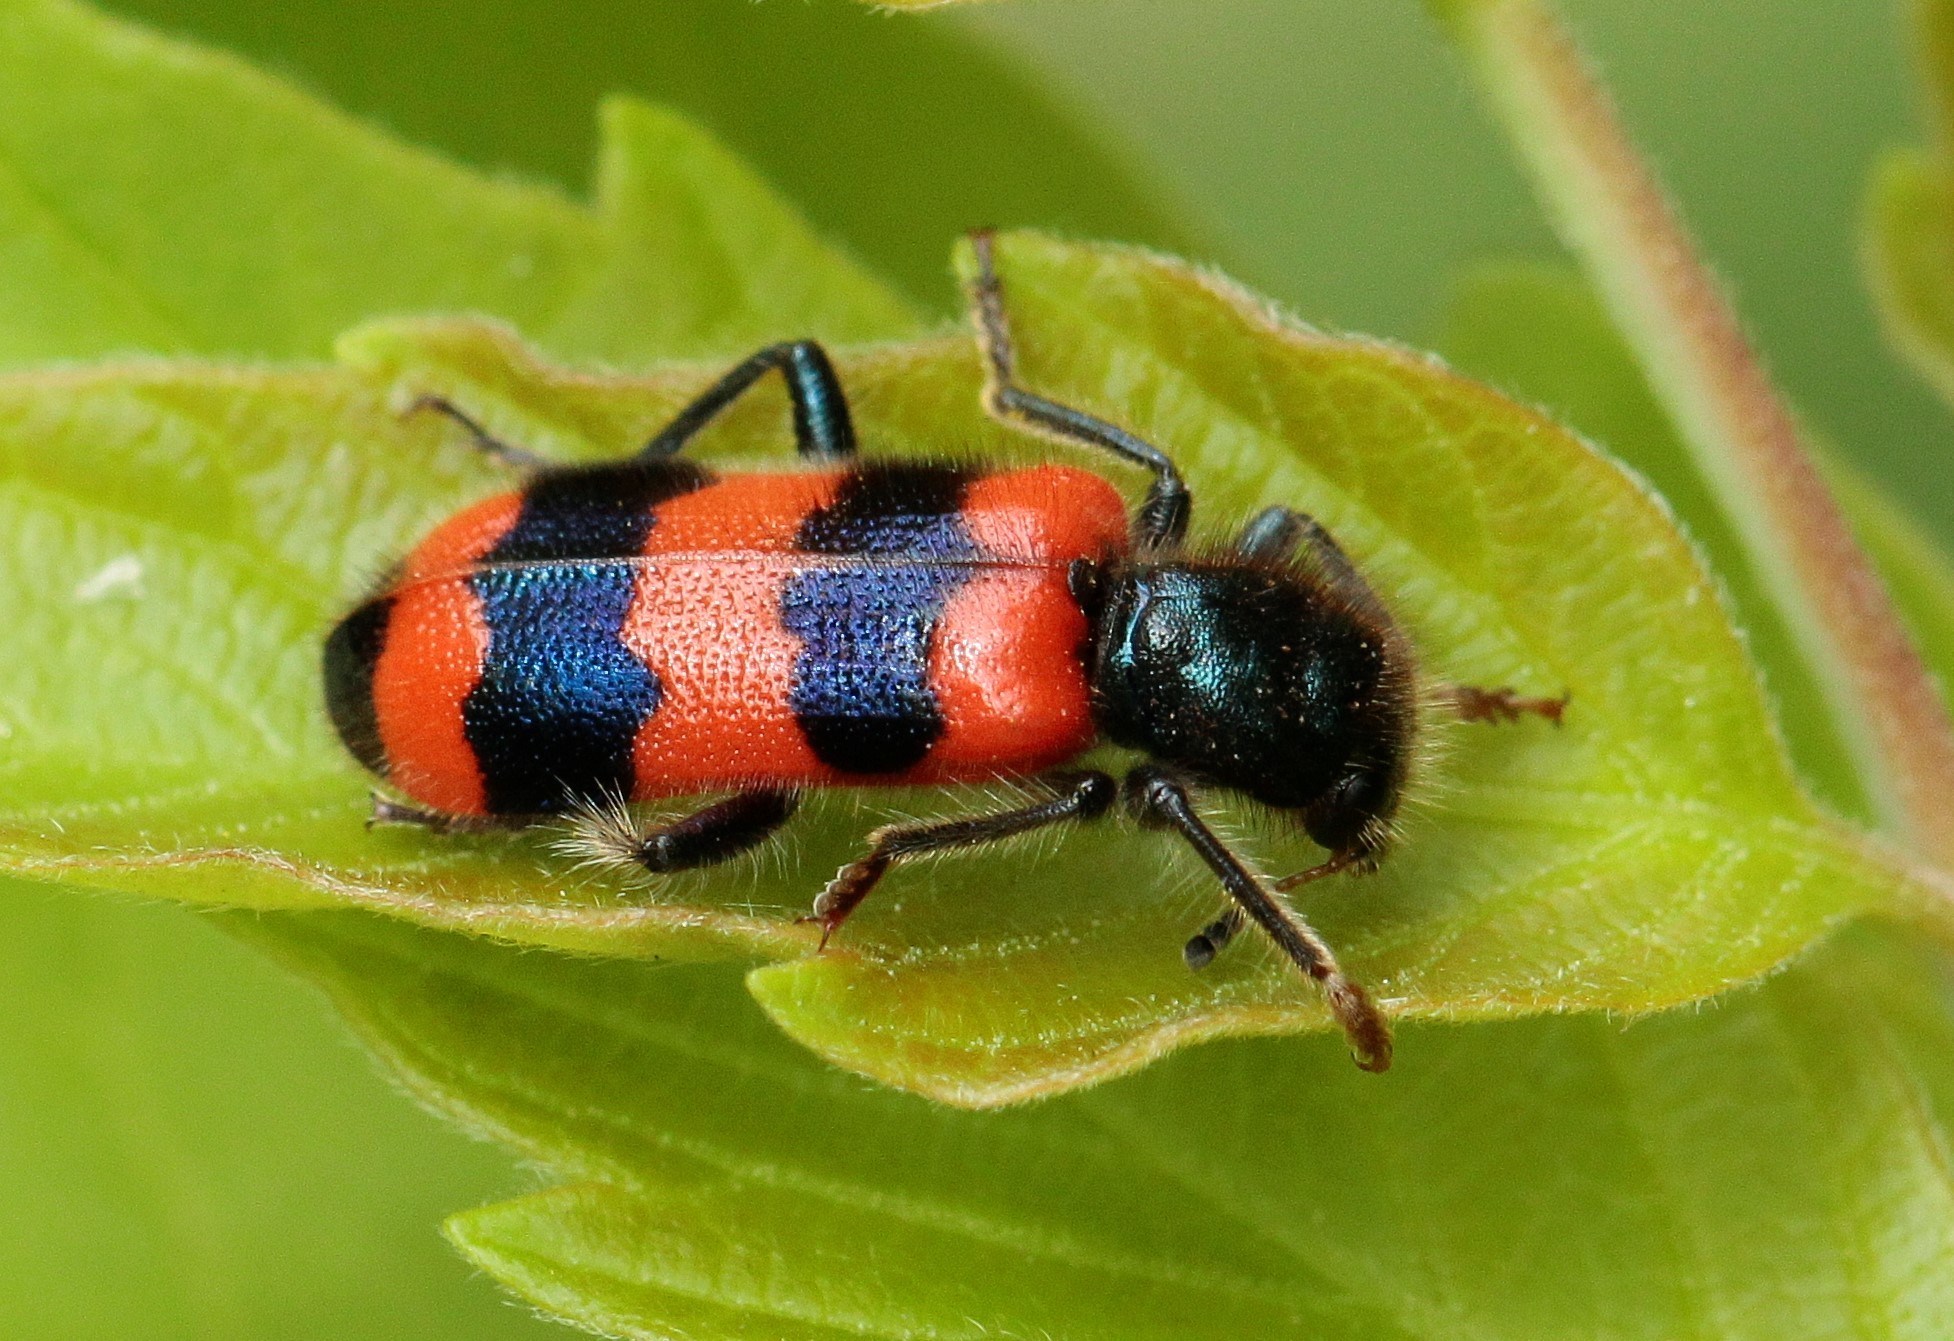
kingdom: Animalia
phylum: Arthropoda
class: Insecta
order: Coleoptera
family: Cleridae
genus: Trichodes
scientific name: Trichodes apiarius
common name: Bee-eating beetle
